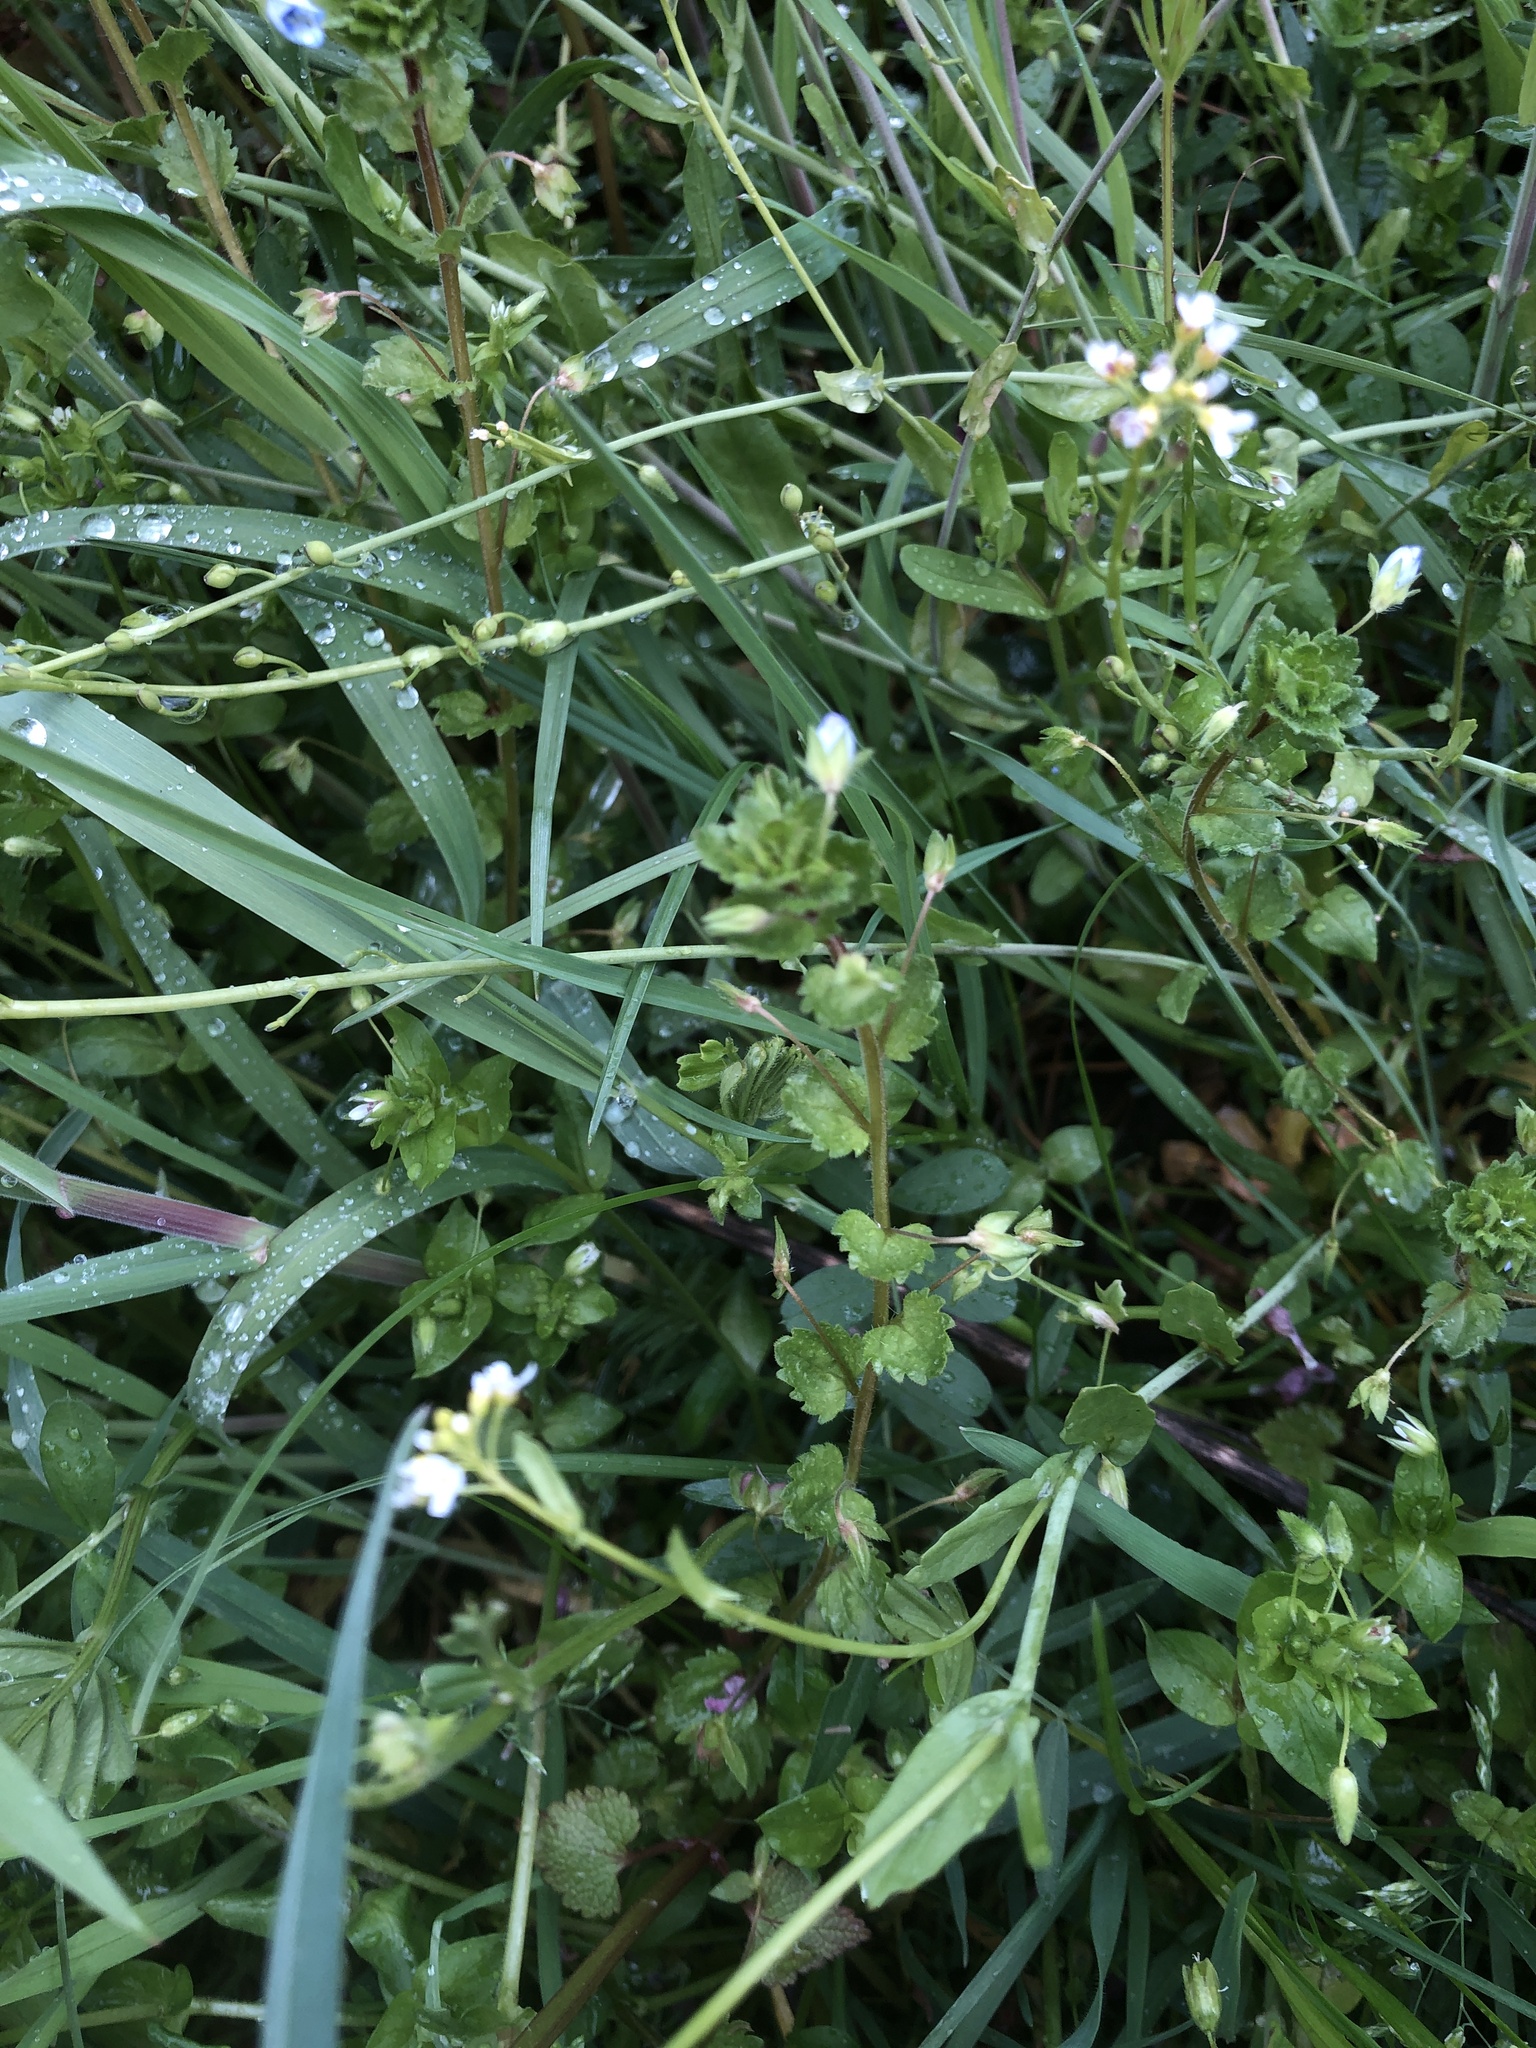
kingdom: Plantae
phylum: Tracheophyta
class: Magnoliopsida
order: Lamiales
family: Plantaginaceae
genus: Veronica
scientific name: Veronica persica
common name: Common field-speedwell
